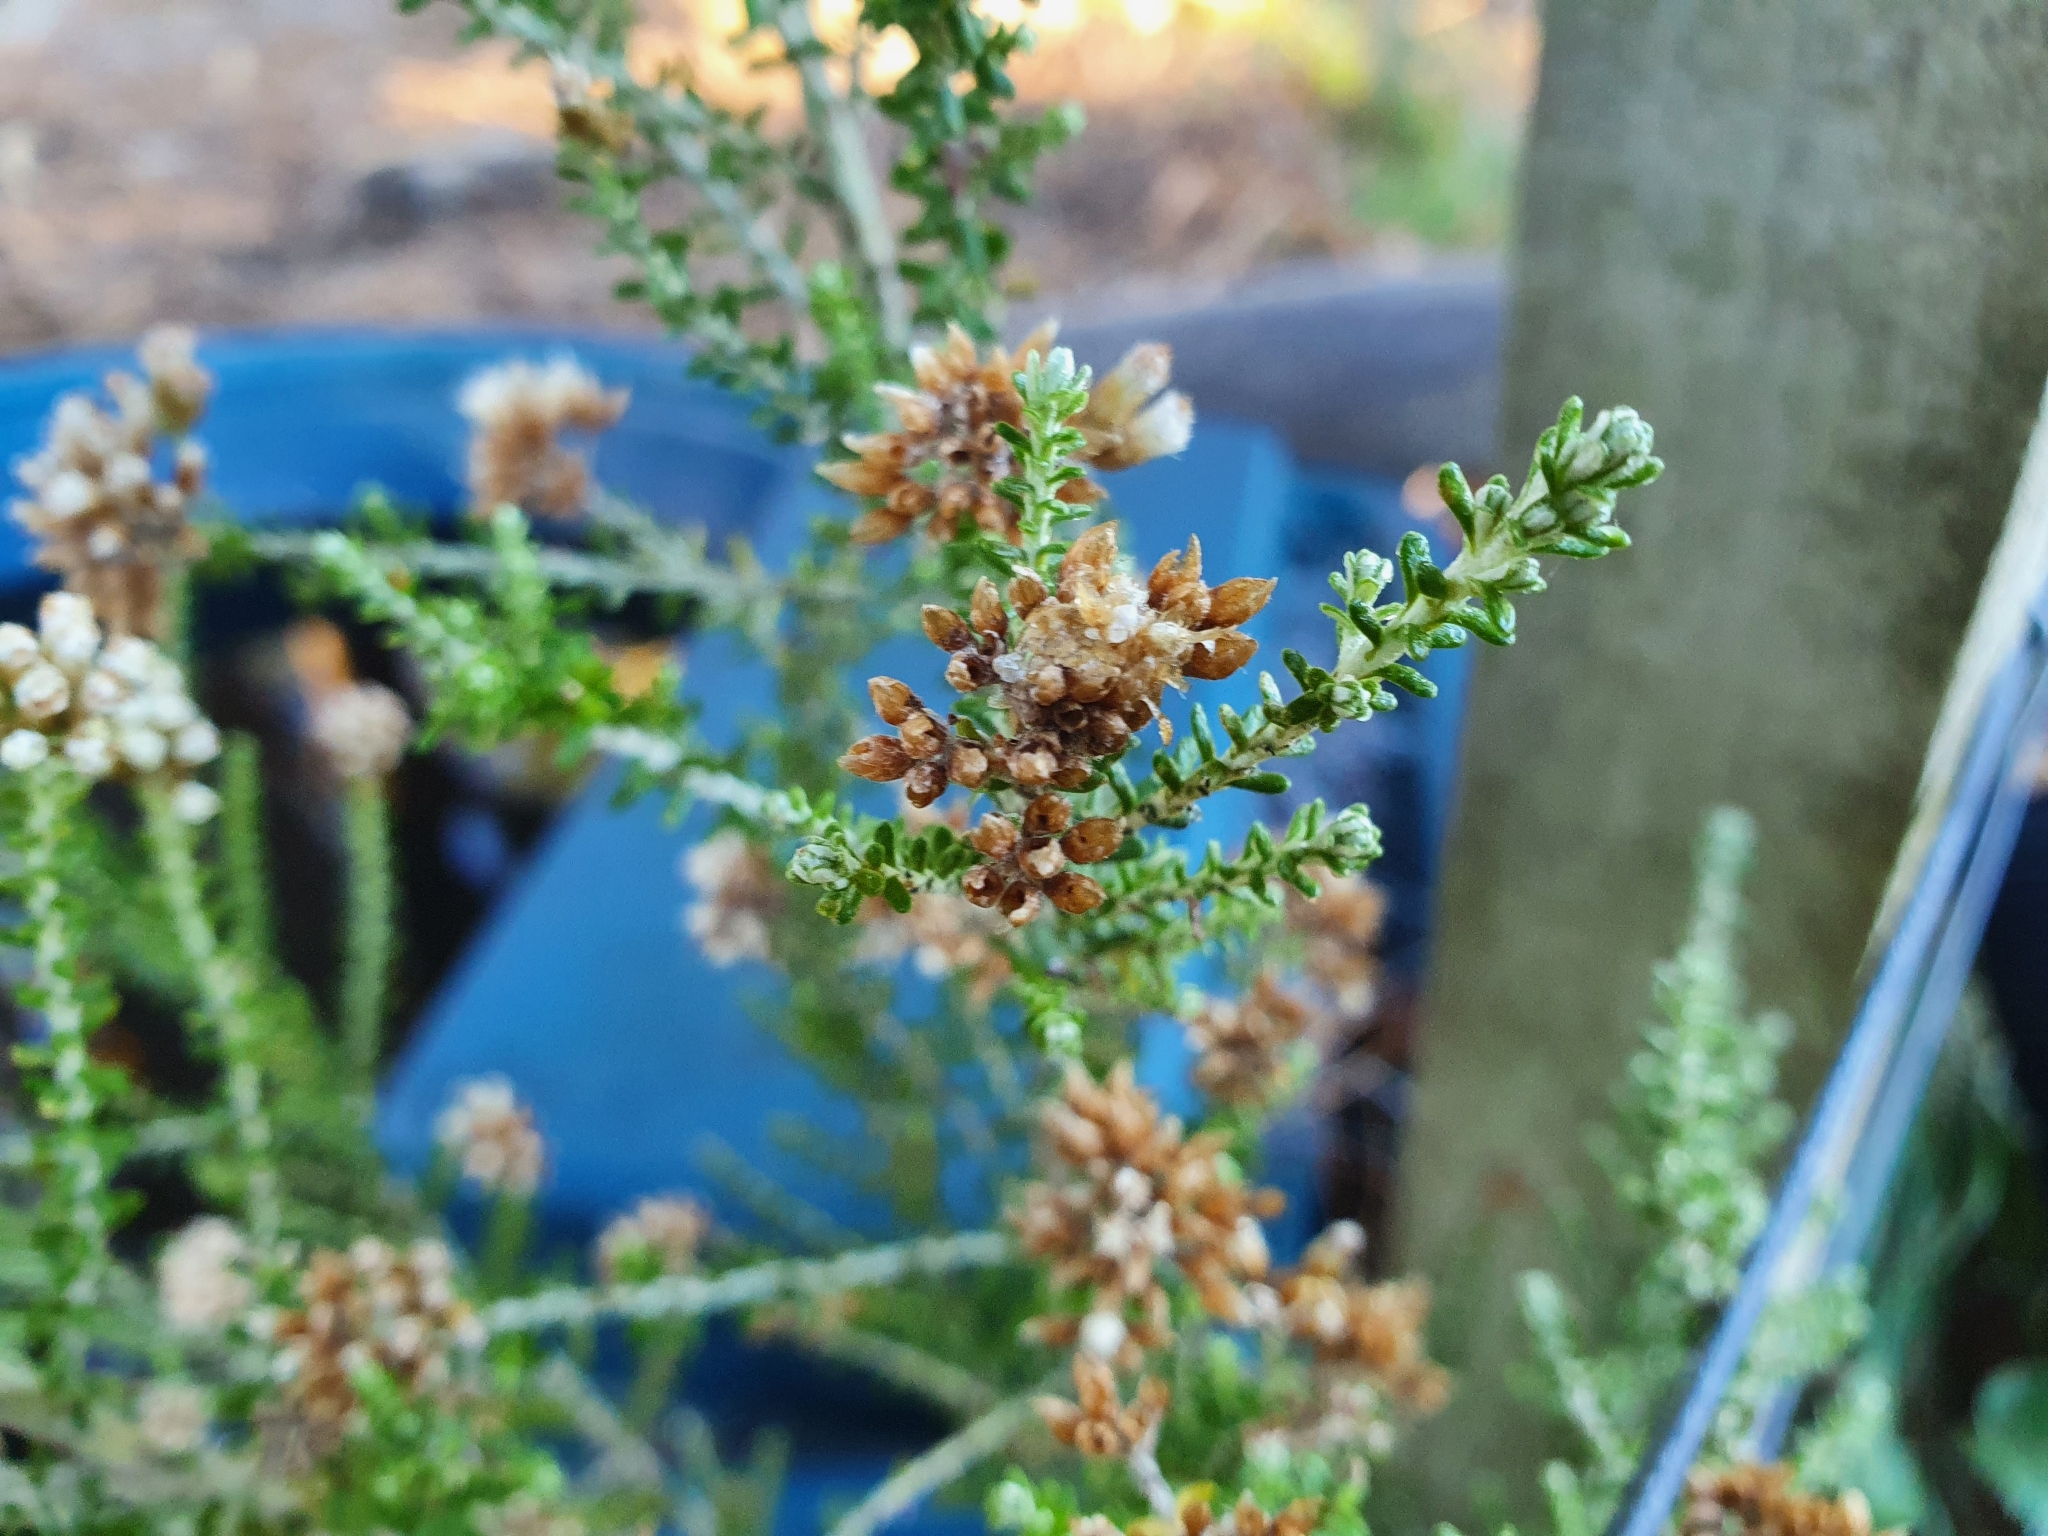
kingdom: Plantae
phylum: Tracheophyta
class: Magnoliopsida
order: Asterales
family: Asteraceae
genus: Ozothamnus
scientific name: Ozothamnus leptophyllus
